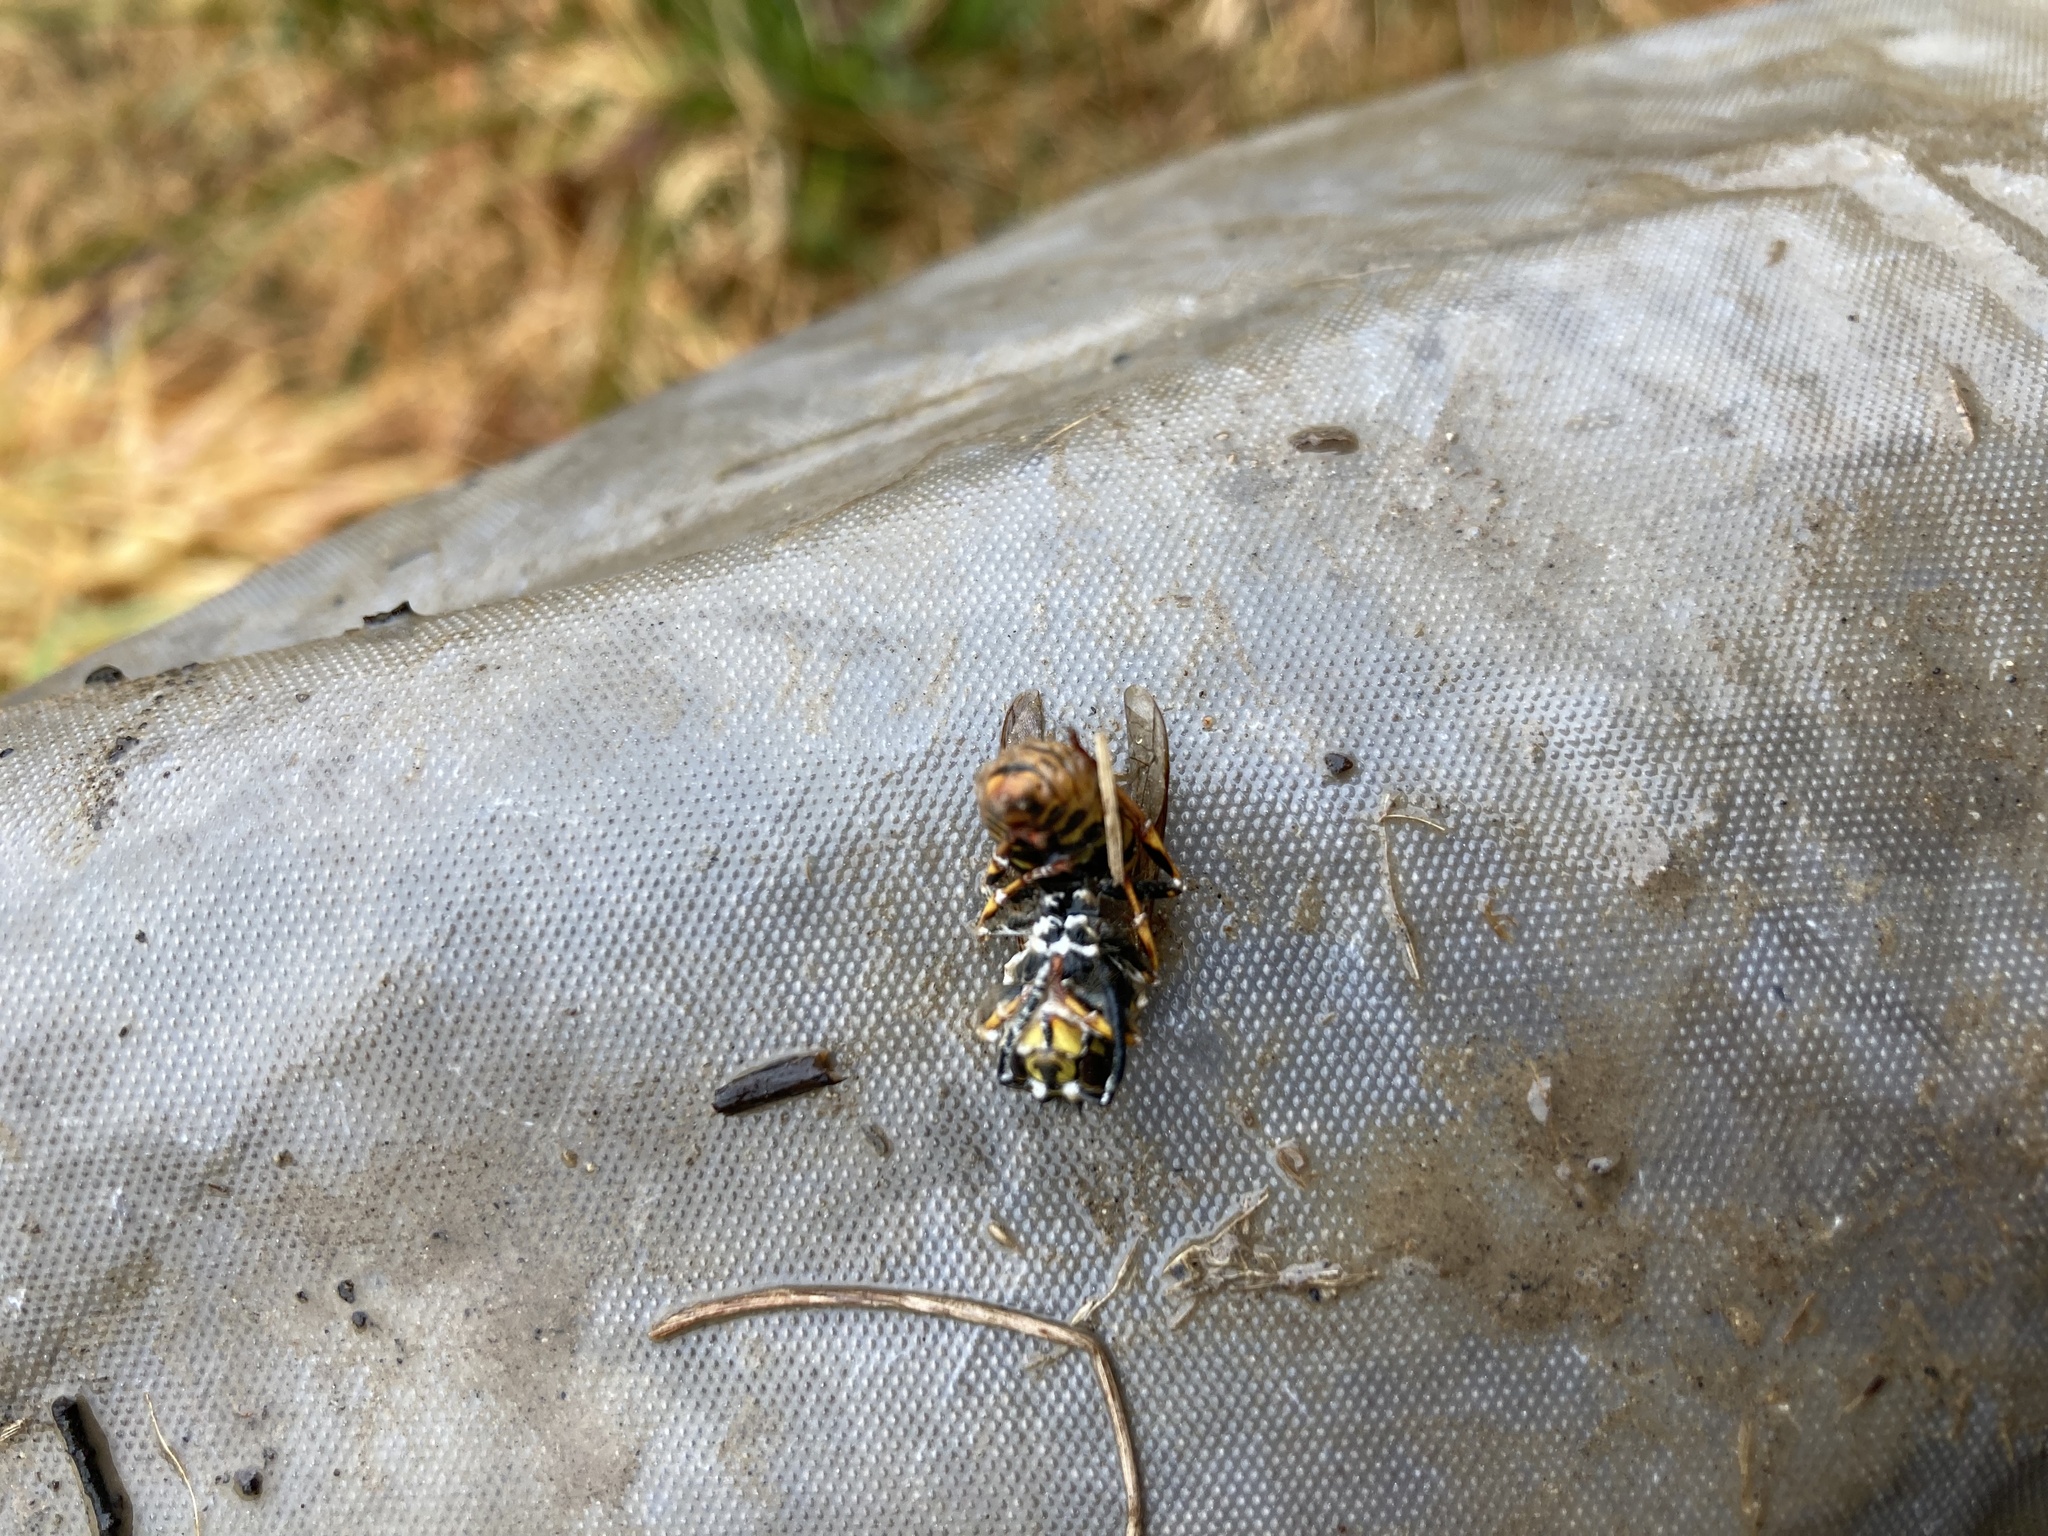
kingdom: Animalia
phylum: Arthropoda
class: Insecta
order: Hymenoptera
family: Vespidae
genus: Vespula
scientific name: Vespula vulgaris
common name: Common wasp
